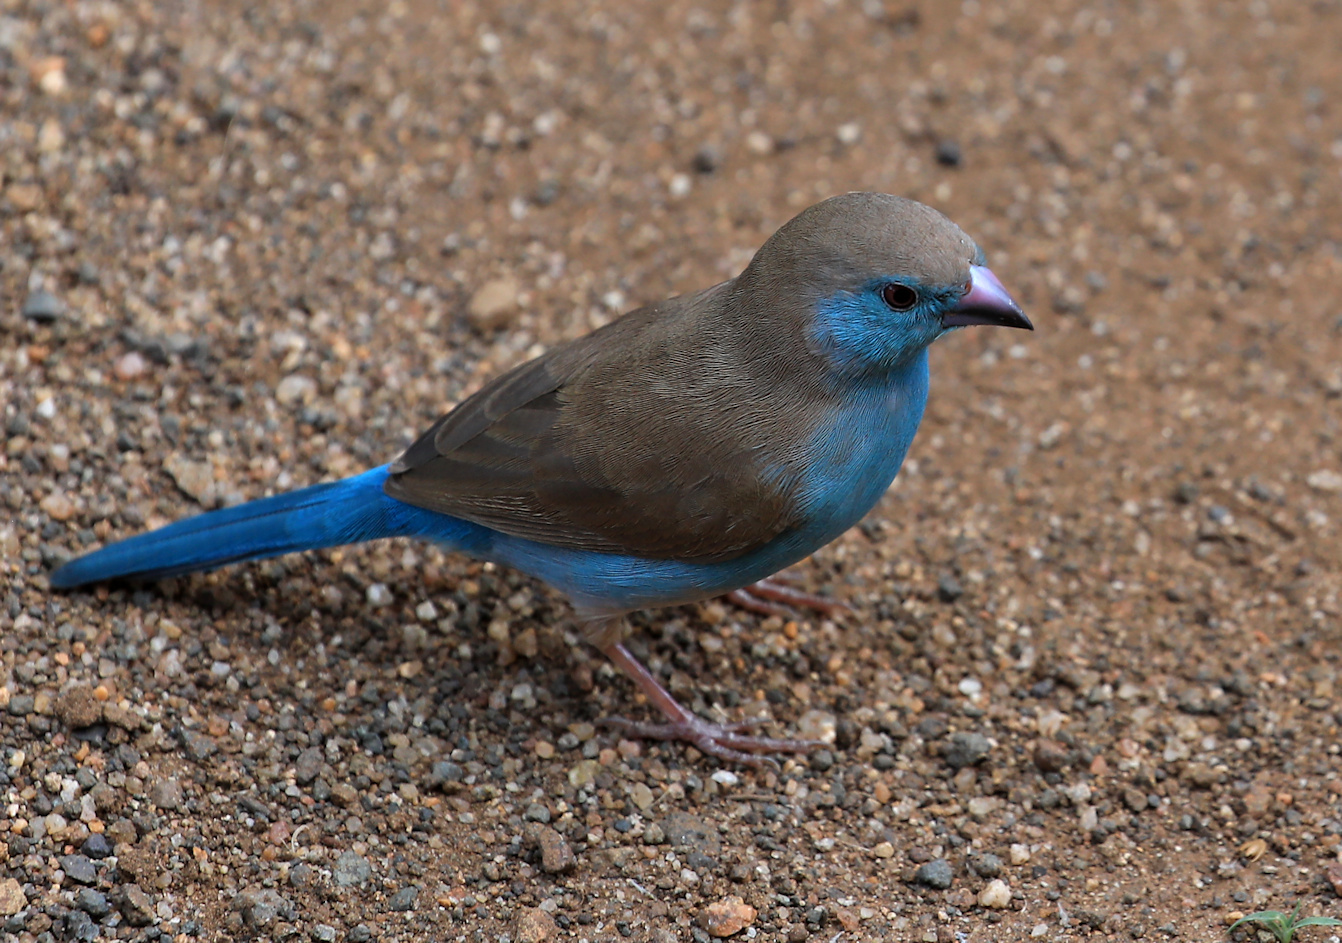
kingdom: Animalia
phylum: Chordata
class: Aves
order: Passeriformes
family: Estrildidae
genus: Uraeginthus
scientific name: Uraeginthus angolensis
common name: Blue waxbill
